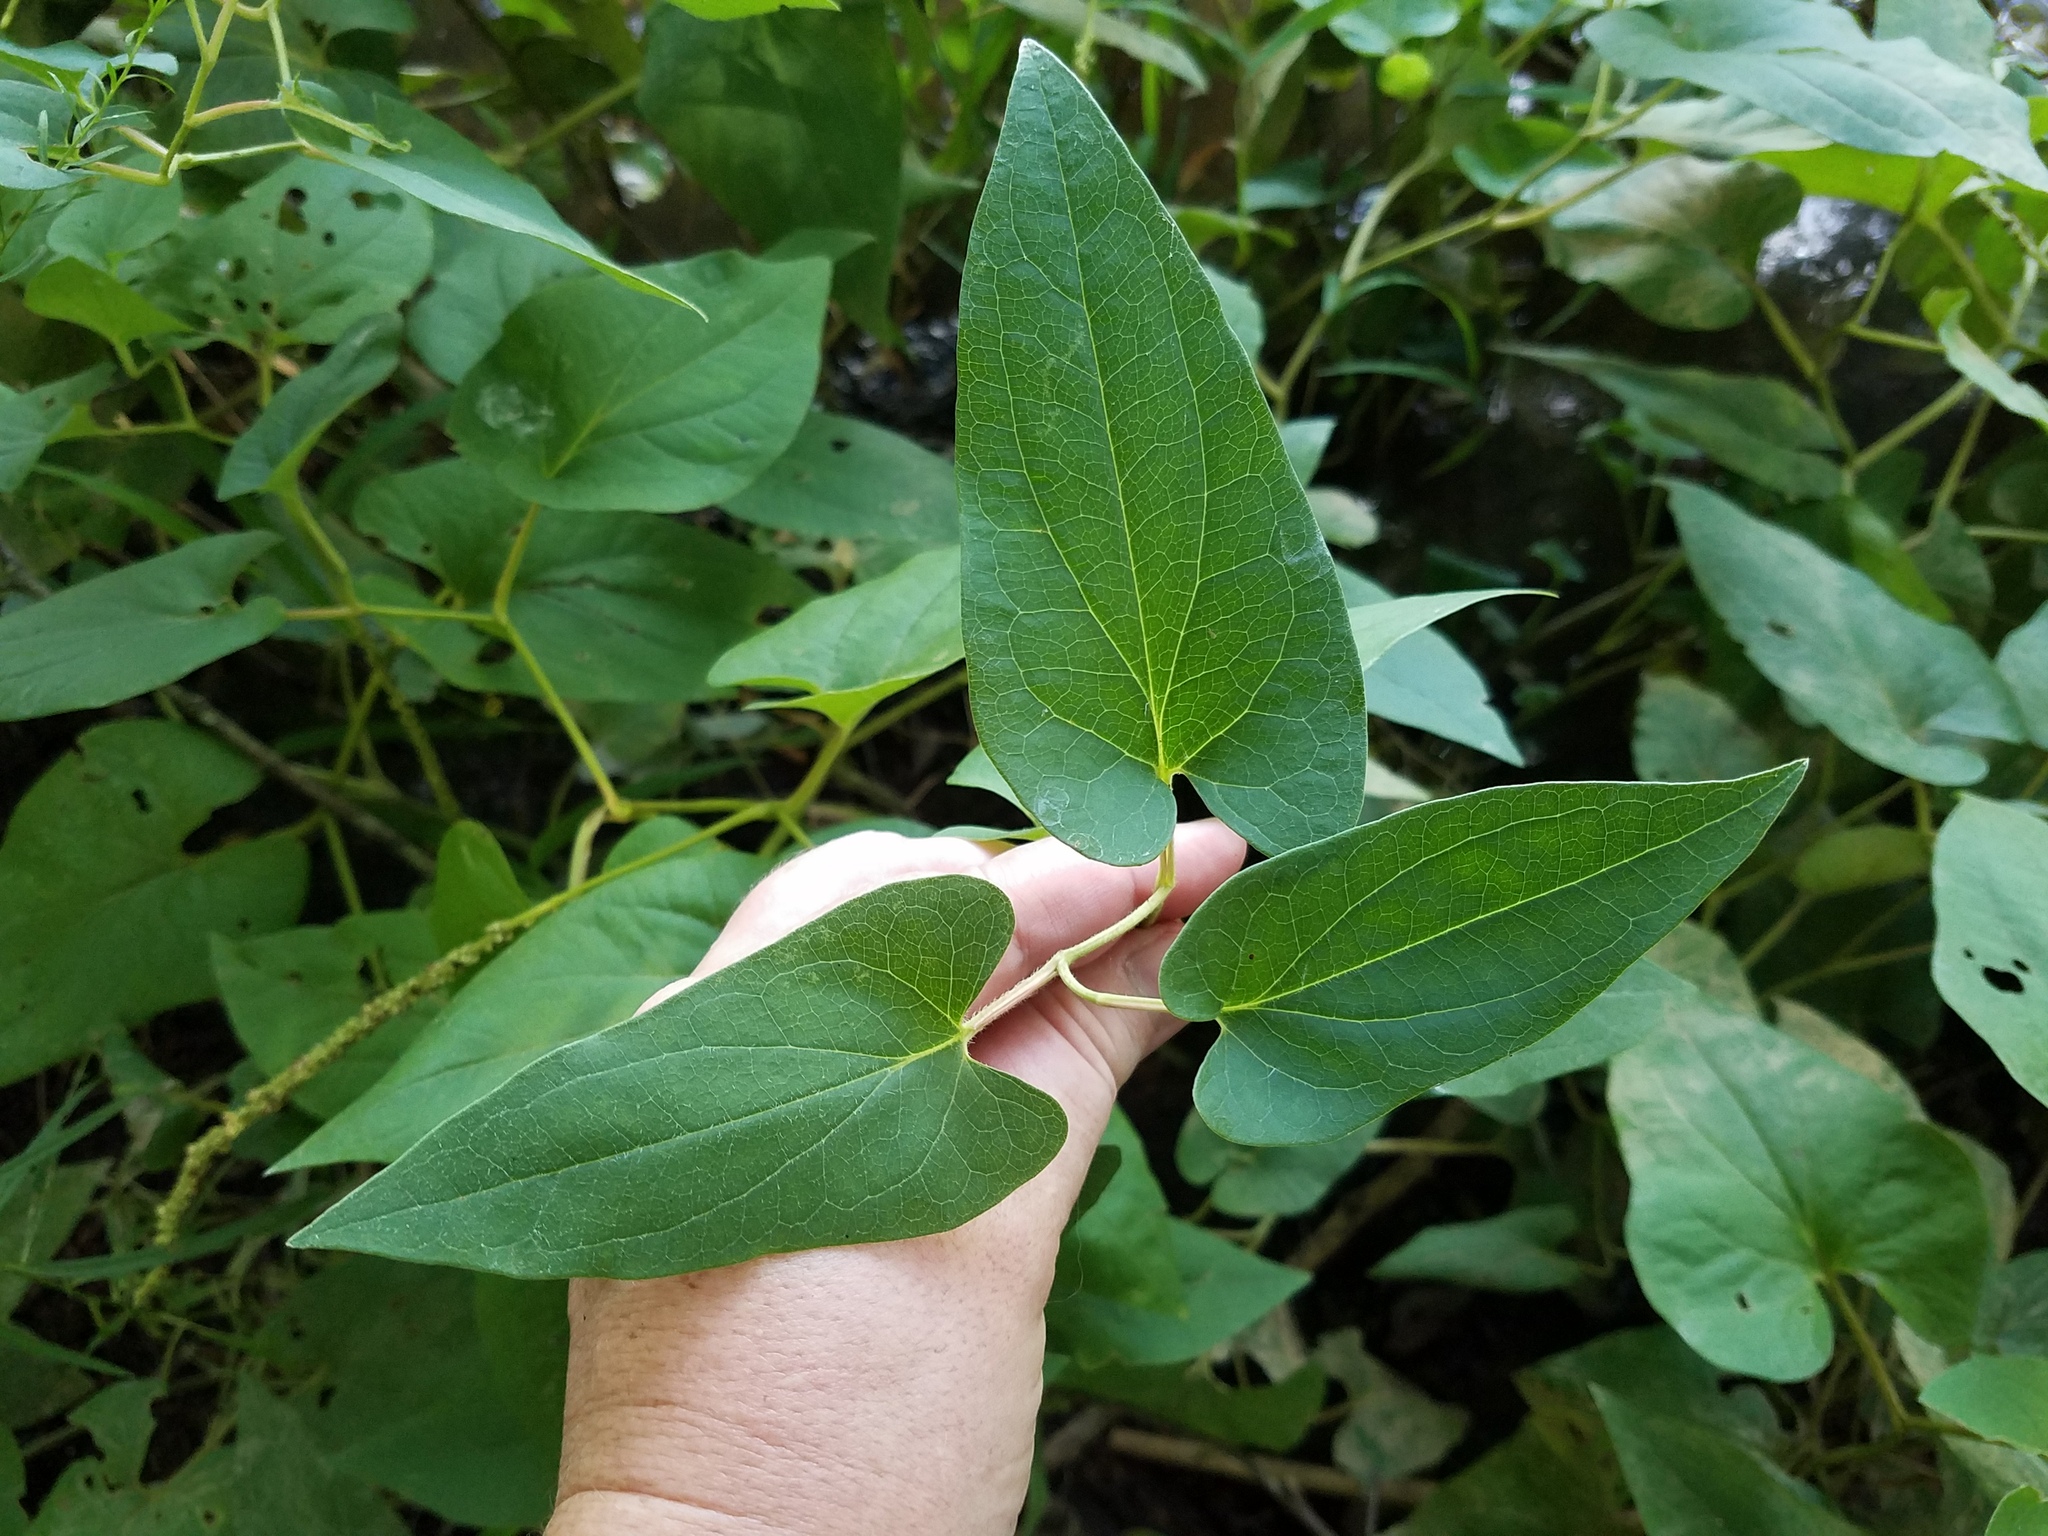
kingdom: Plantae
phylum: Tracheophyta
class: Magnoliopsida
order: Piperales
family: Saururaceae
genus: Saururus
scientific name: Saururus cernuus
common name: Lizard's-tail
